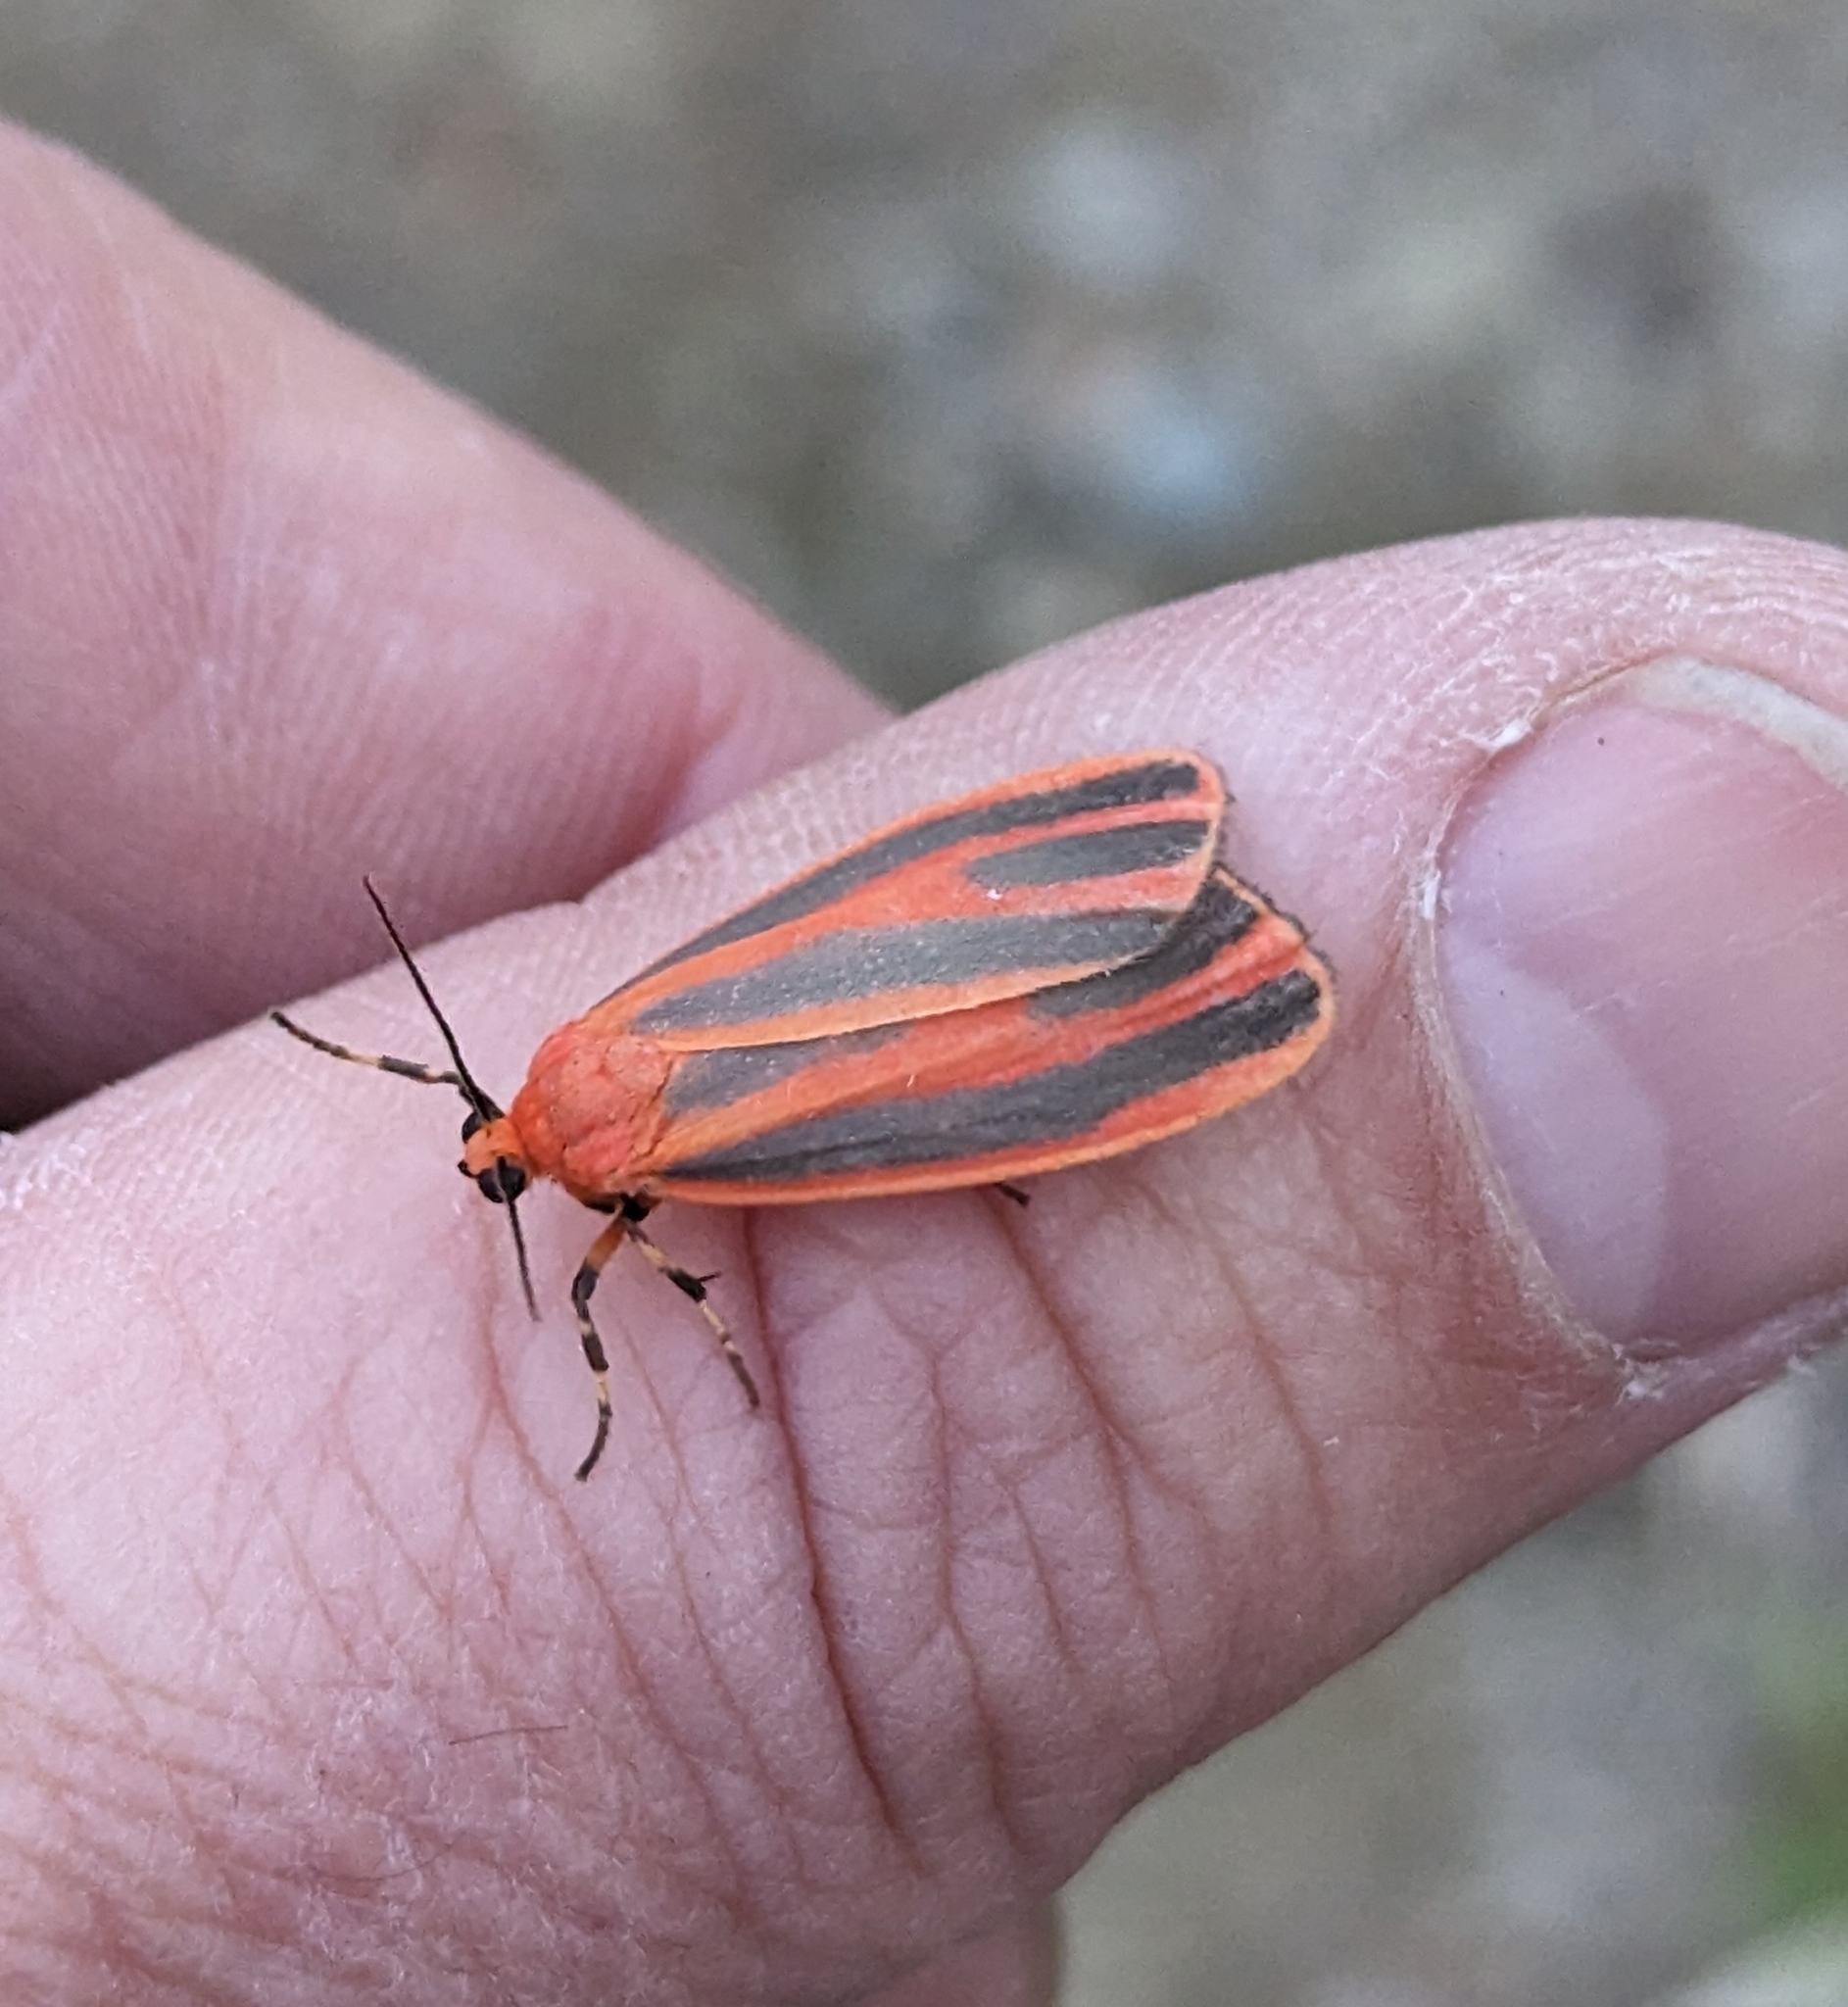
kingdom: Animalia
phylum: Arthropoda
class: Insecta
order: Lepidoptera
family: Erebidae
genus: Hypoprepia
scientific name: Hypoprepia miniata
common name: Scarlet-winged lichen moth
